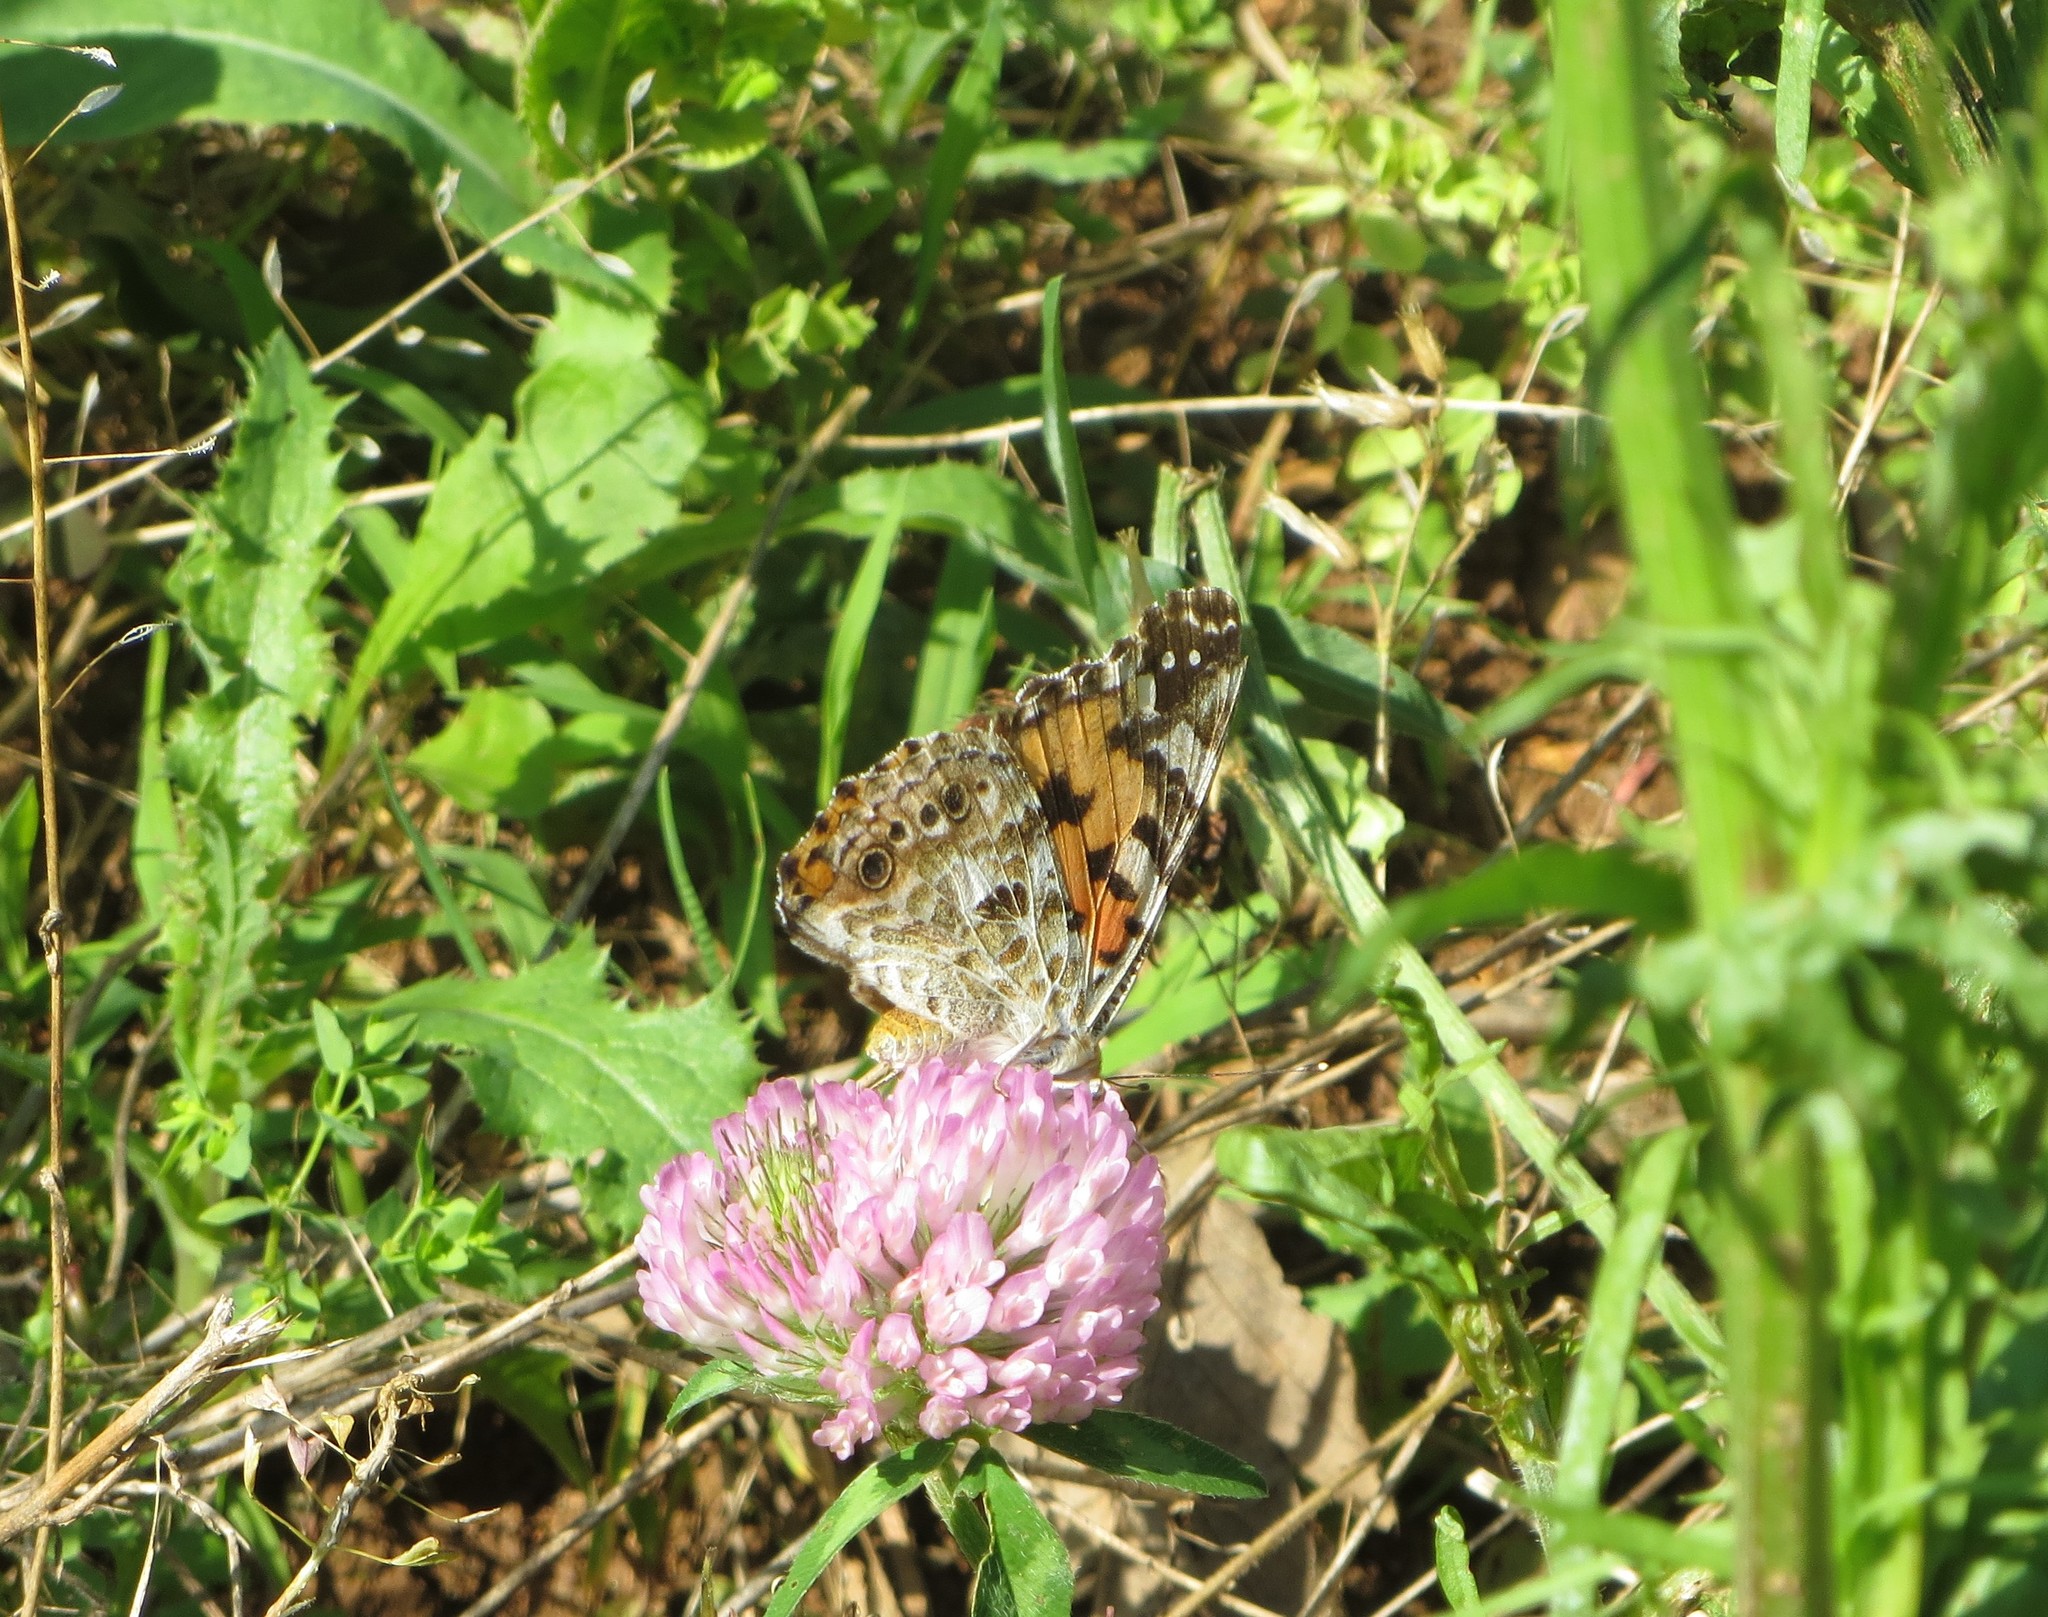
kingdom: Animalia
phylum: Arthropoda
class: Insecta
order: Lepidoptera
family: Nymphalidae
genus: Vanessa
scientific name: Vanessa cardui
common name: Painted lady
